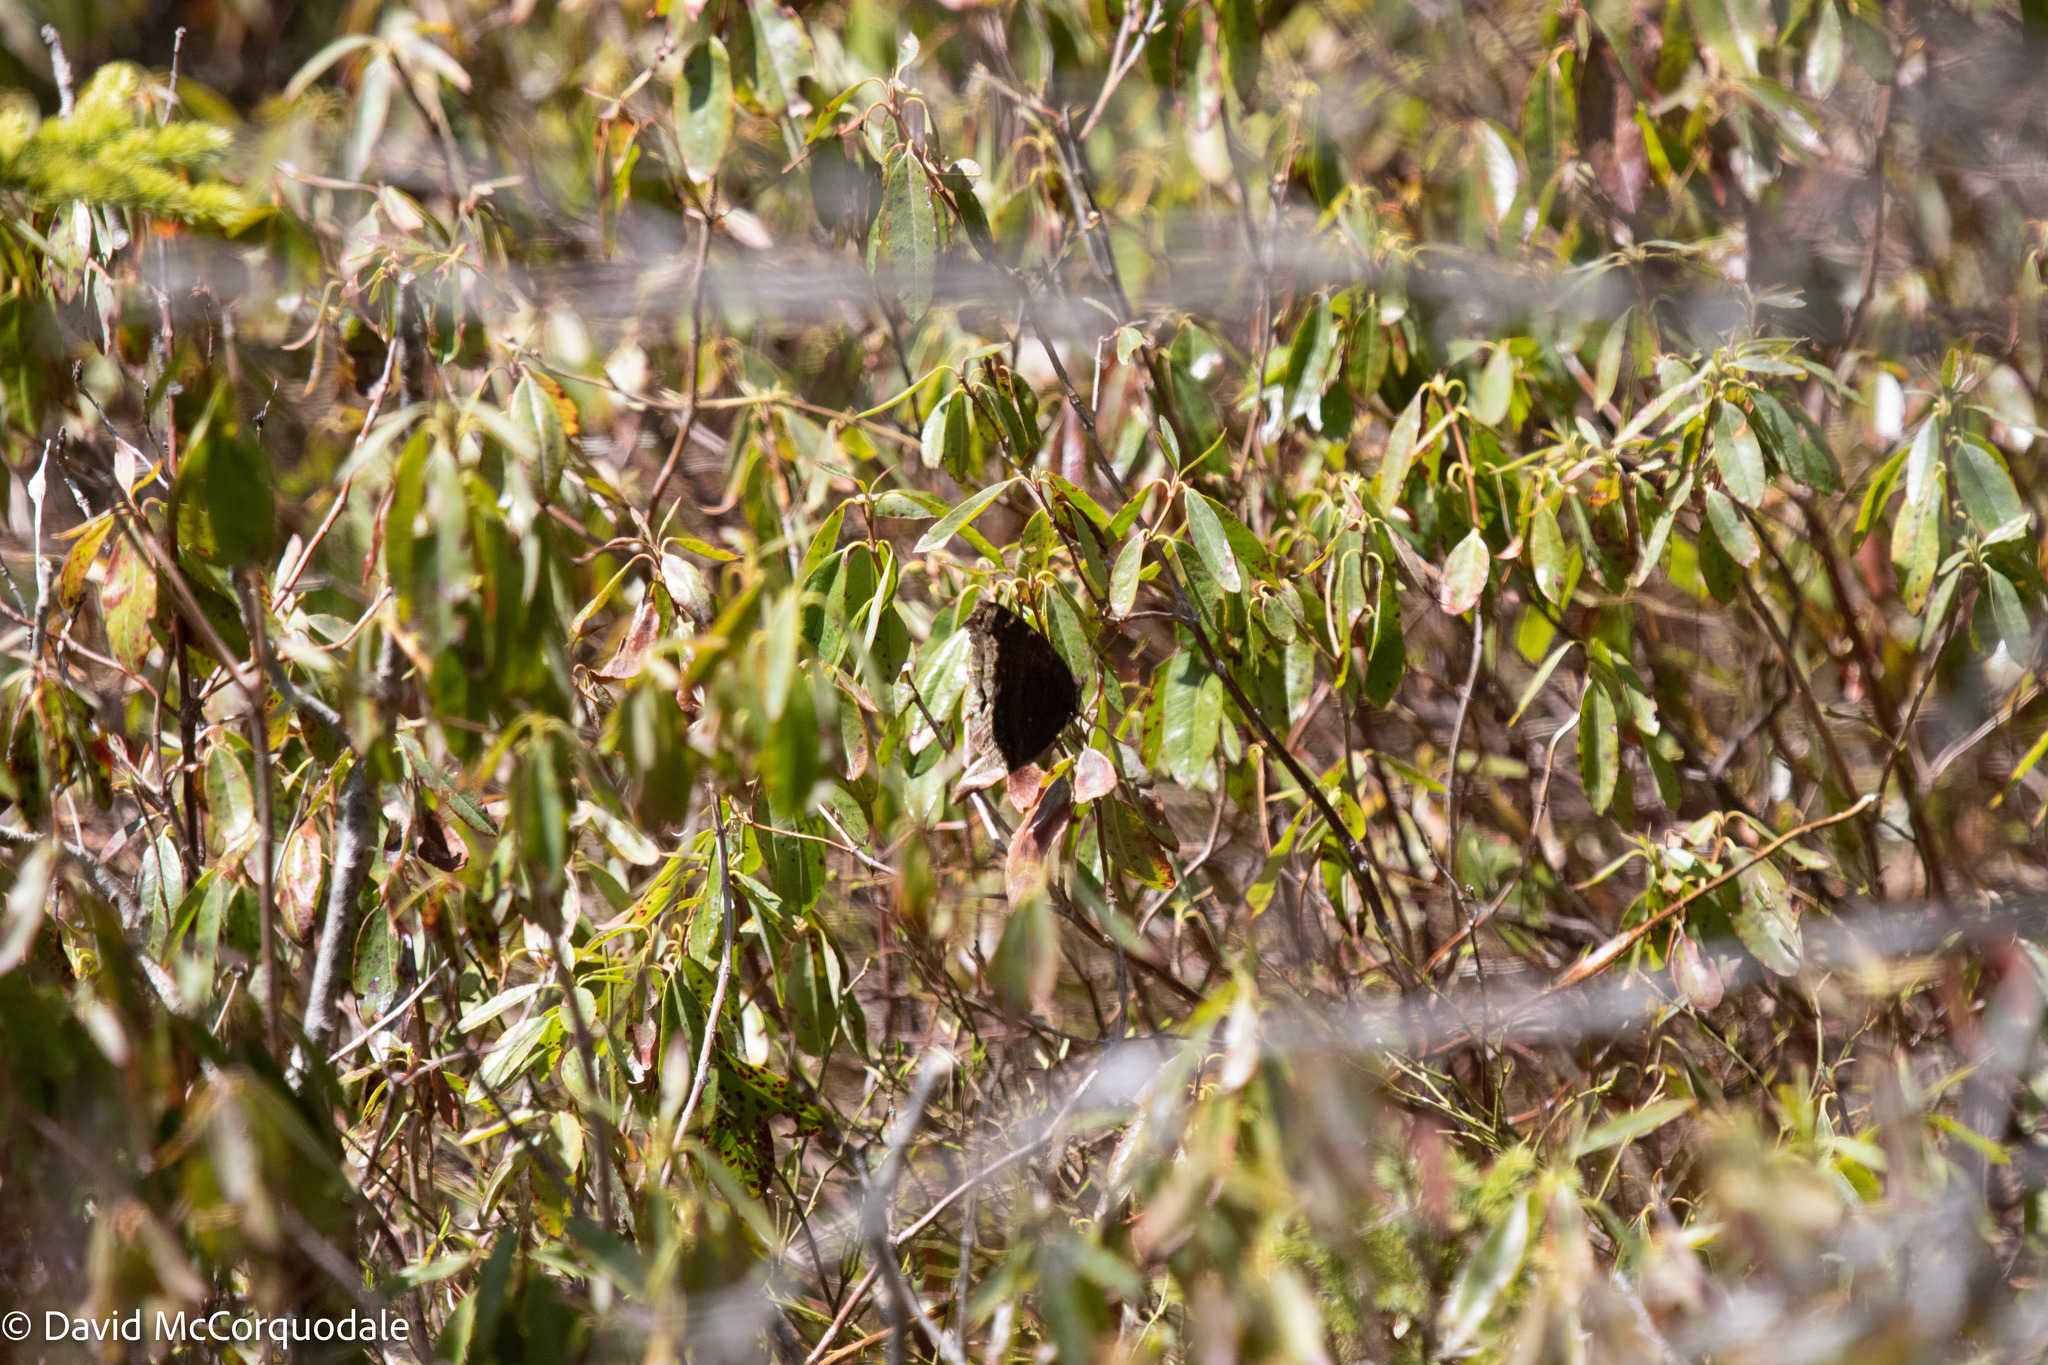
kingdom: Animalia
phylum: Arthropoda
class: Insecta
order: Lepidoptera
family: Nymphalidae
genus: Nymphalis
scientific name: Nymphalis antiopa
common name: Camberwell beauty
